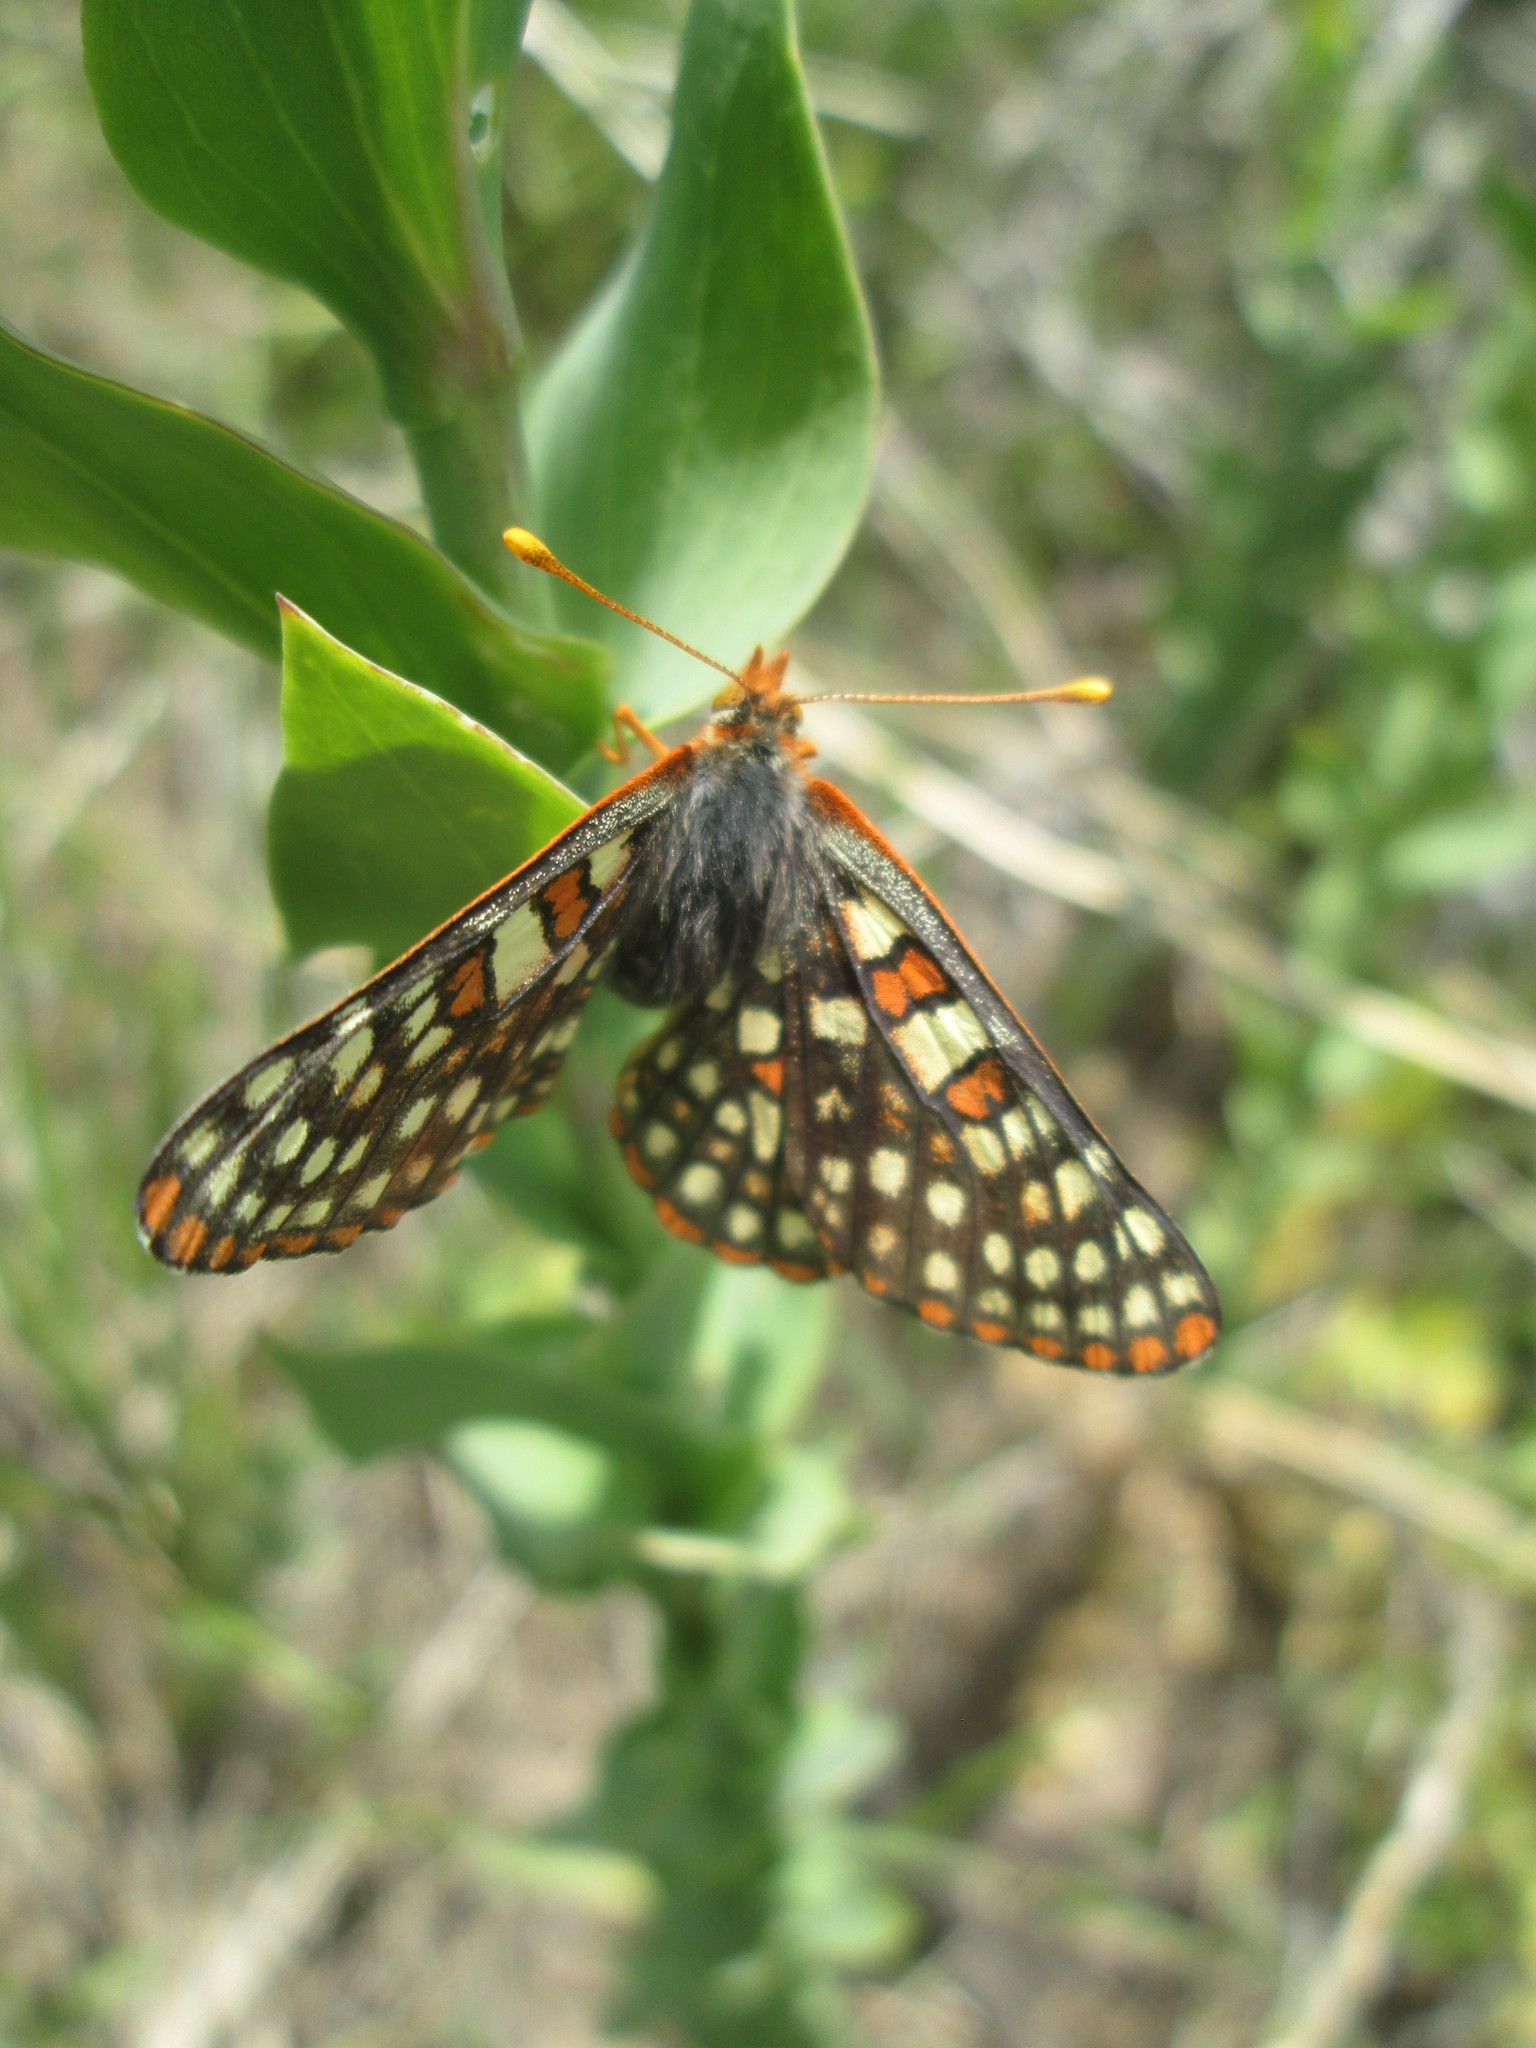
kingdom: Animalia
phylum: Arthropoda
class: Insecta
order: Lepidoptera
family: Nymphalidae
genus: Occidryas
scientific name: Occidryas anicia
